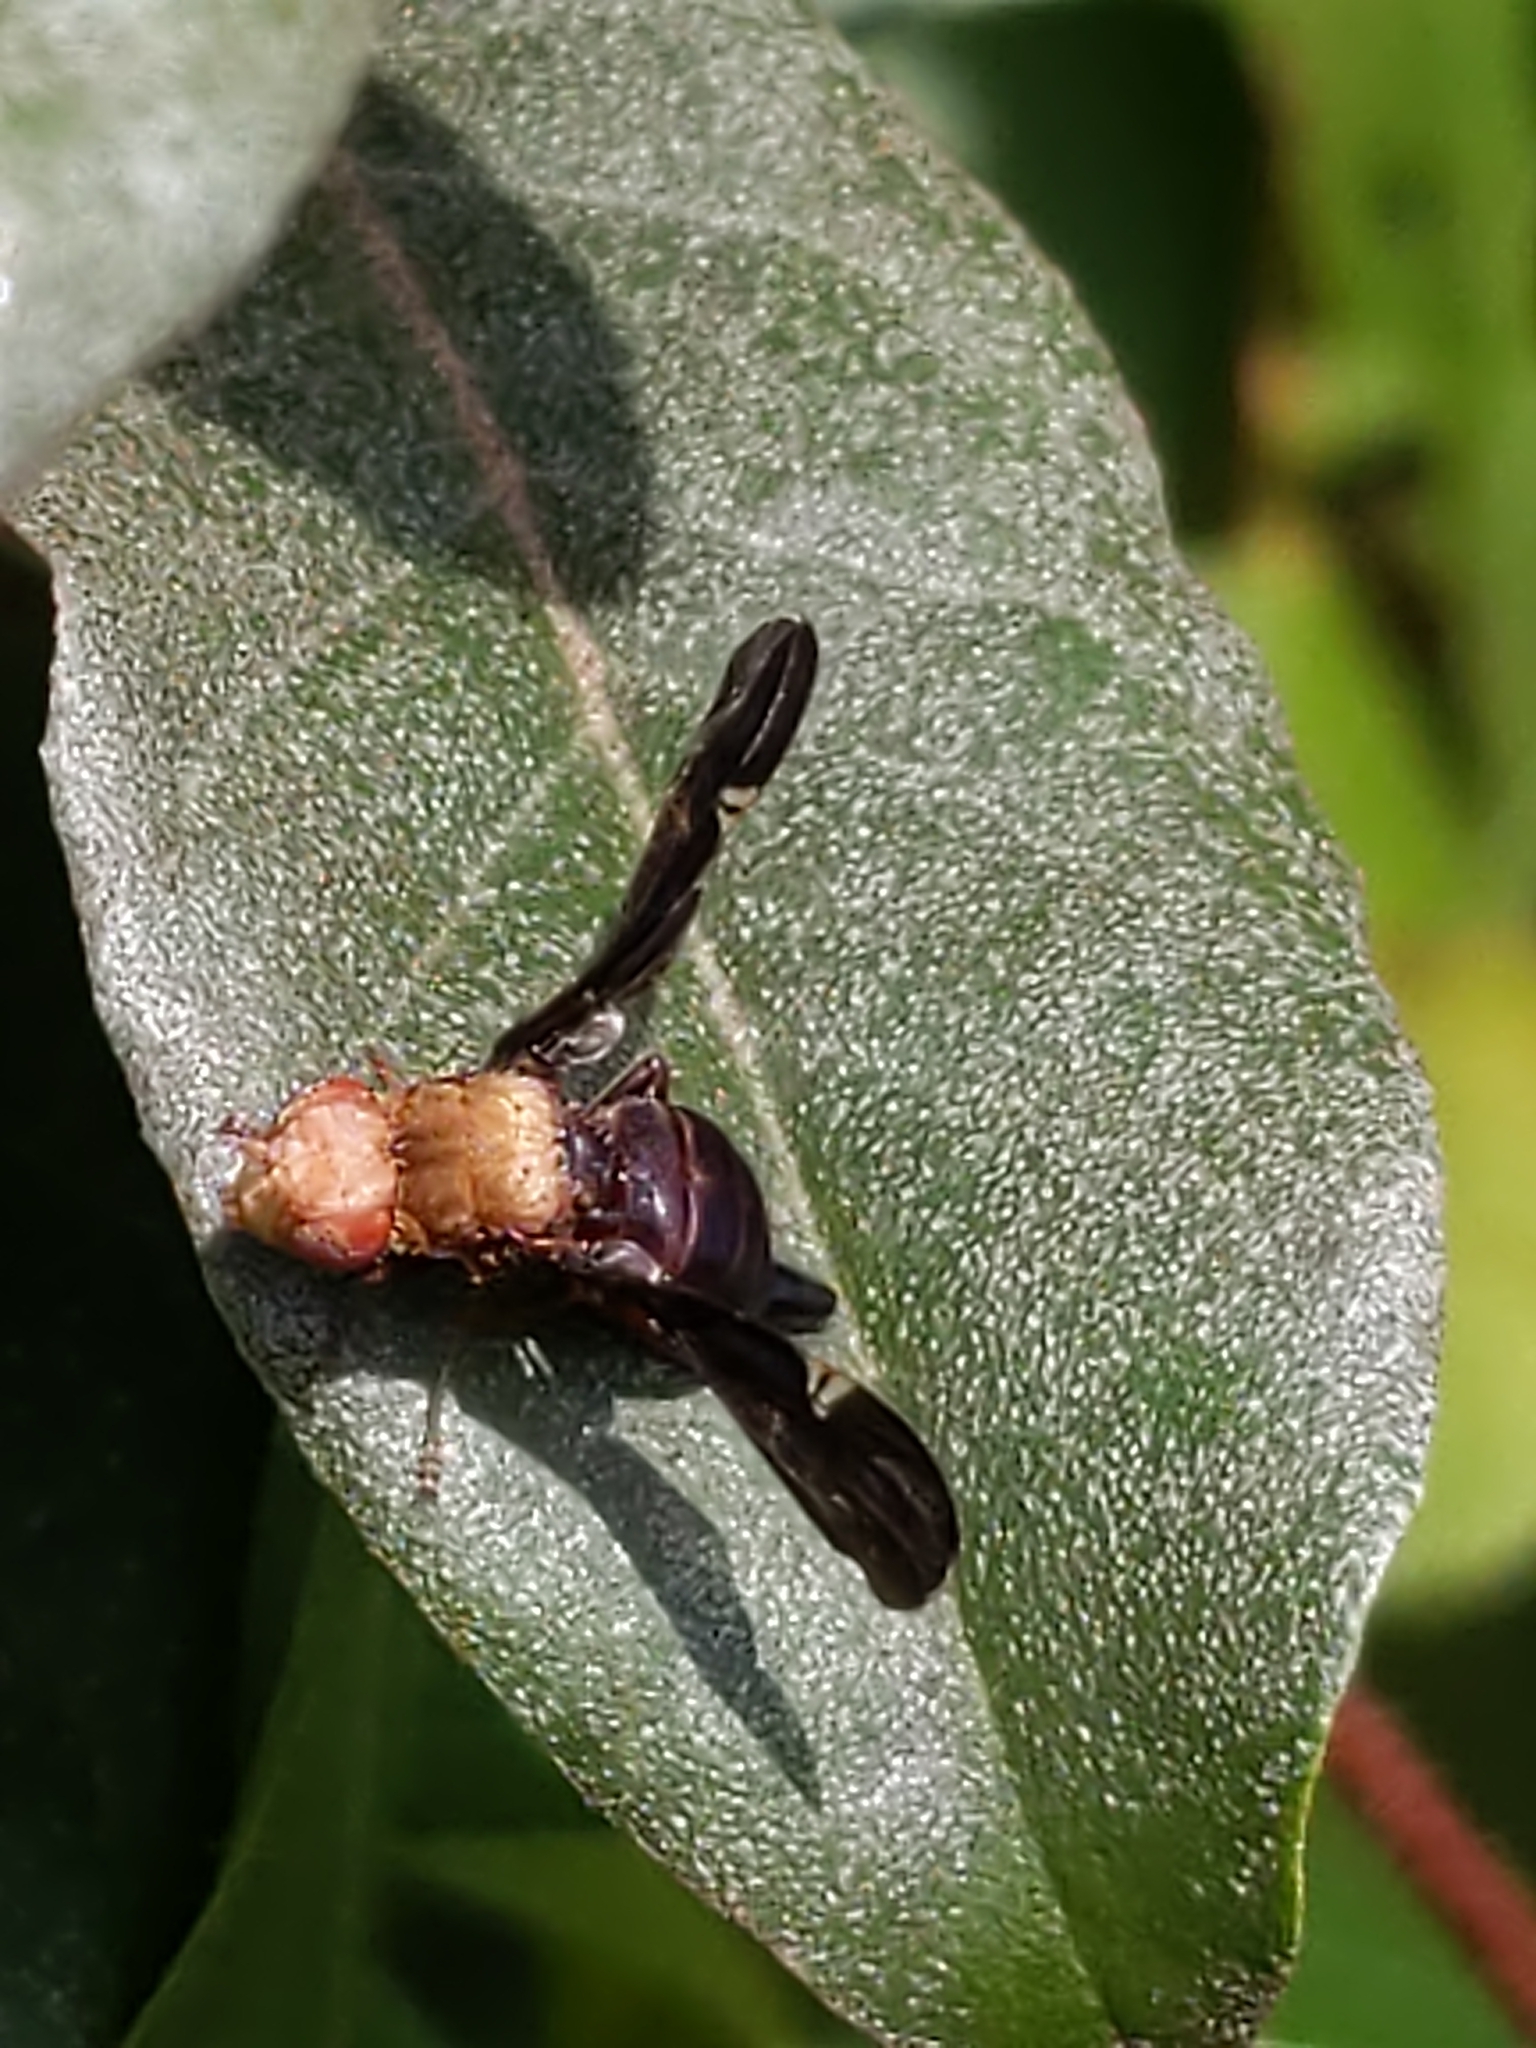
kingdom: Animalia
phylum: Arthropoda
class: Insecta
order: Diptera
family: Tephritidae
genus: Eurosta
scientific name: Eurosta comma
